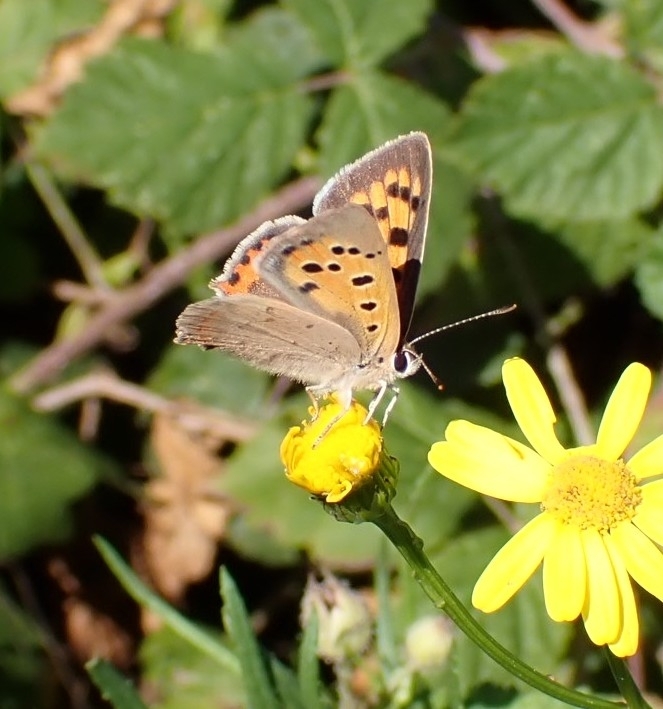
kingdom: Animalia
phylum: Arthropoda
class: Insecta
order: Lepidoptera
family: Lycaenidae
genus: Lycaena
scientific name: Lycaena phlaeas
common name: Small copper
